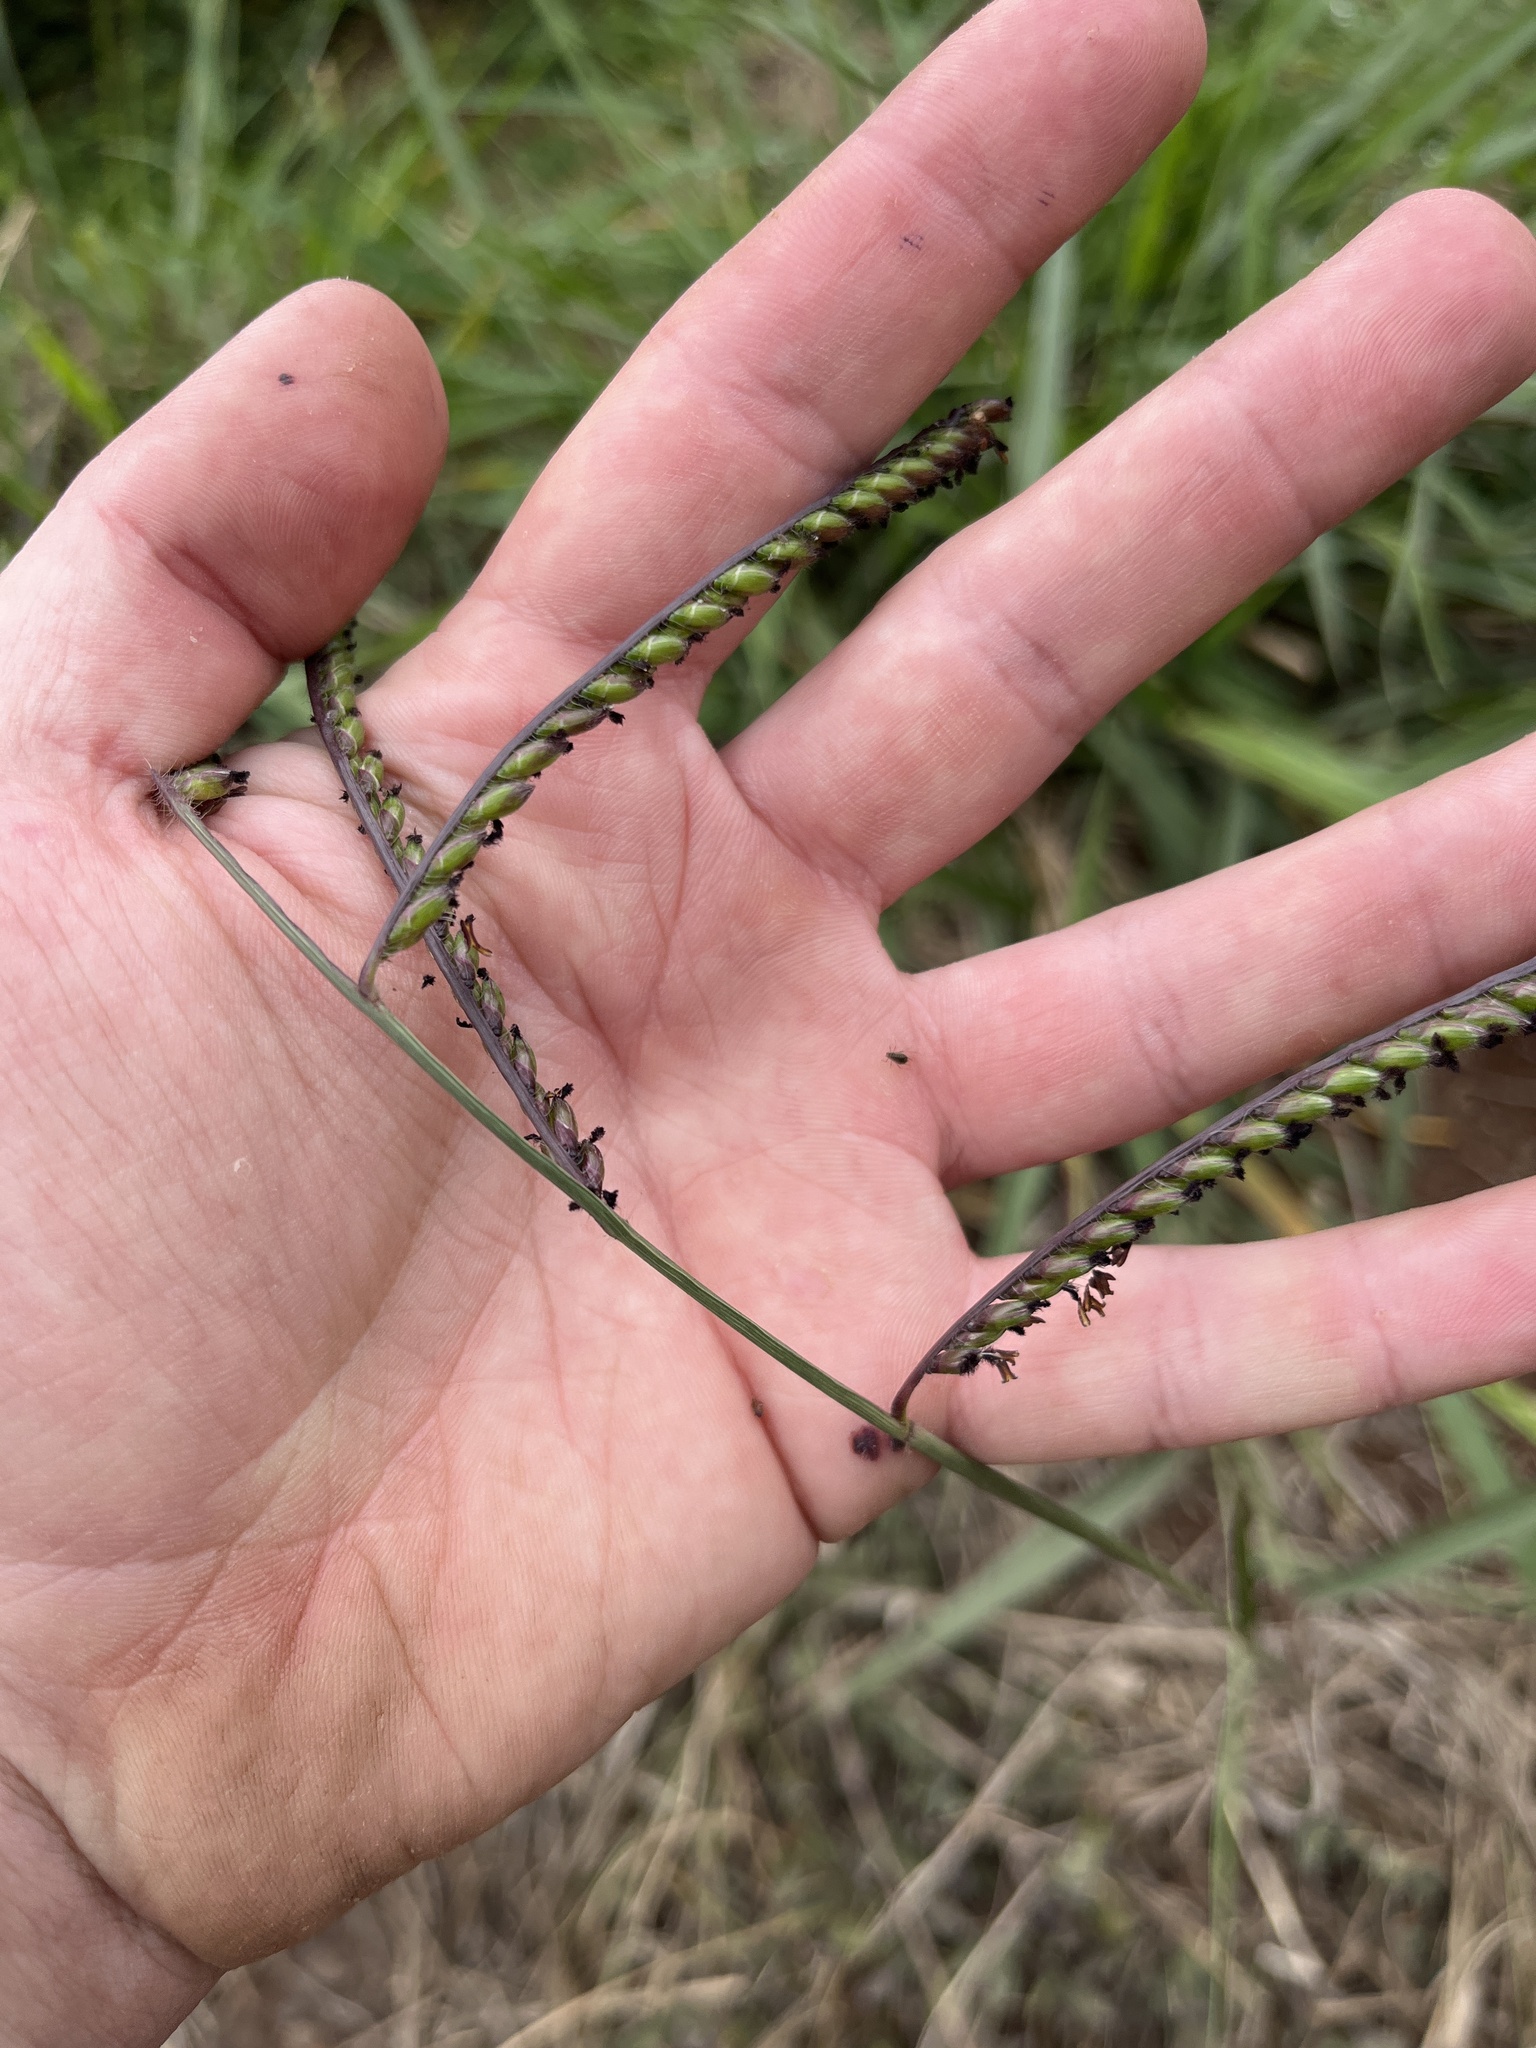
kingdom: Plantae
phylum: Tracheophyta
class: Liliopsida
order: Poales
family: Poaceae
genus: Urochloa
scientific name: Urochloa brizantha
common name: Palisade signalgrass
